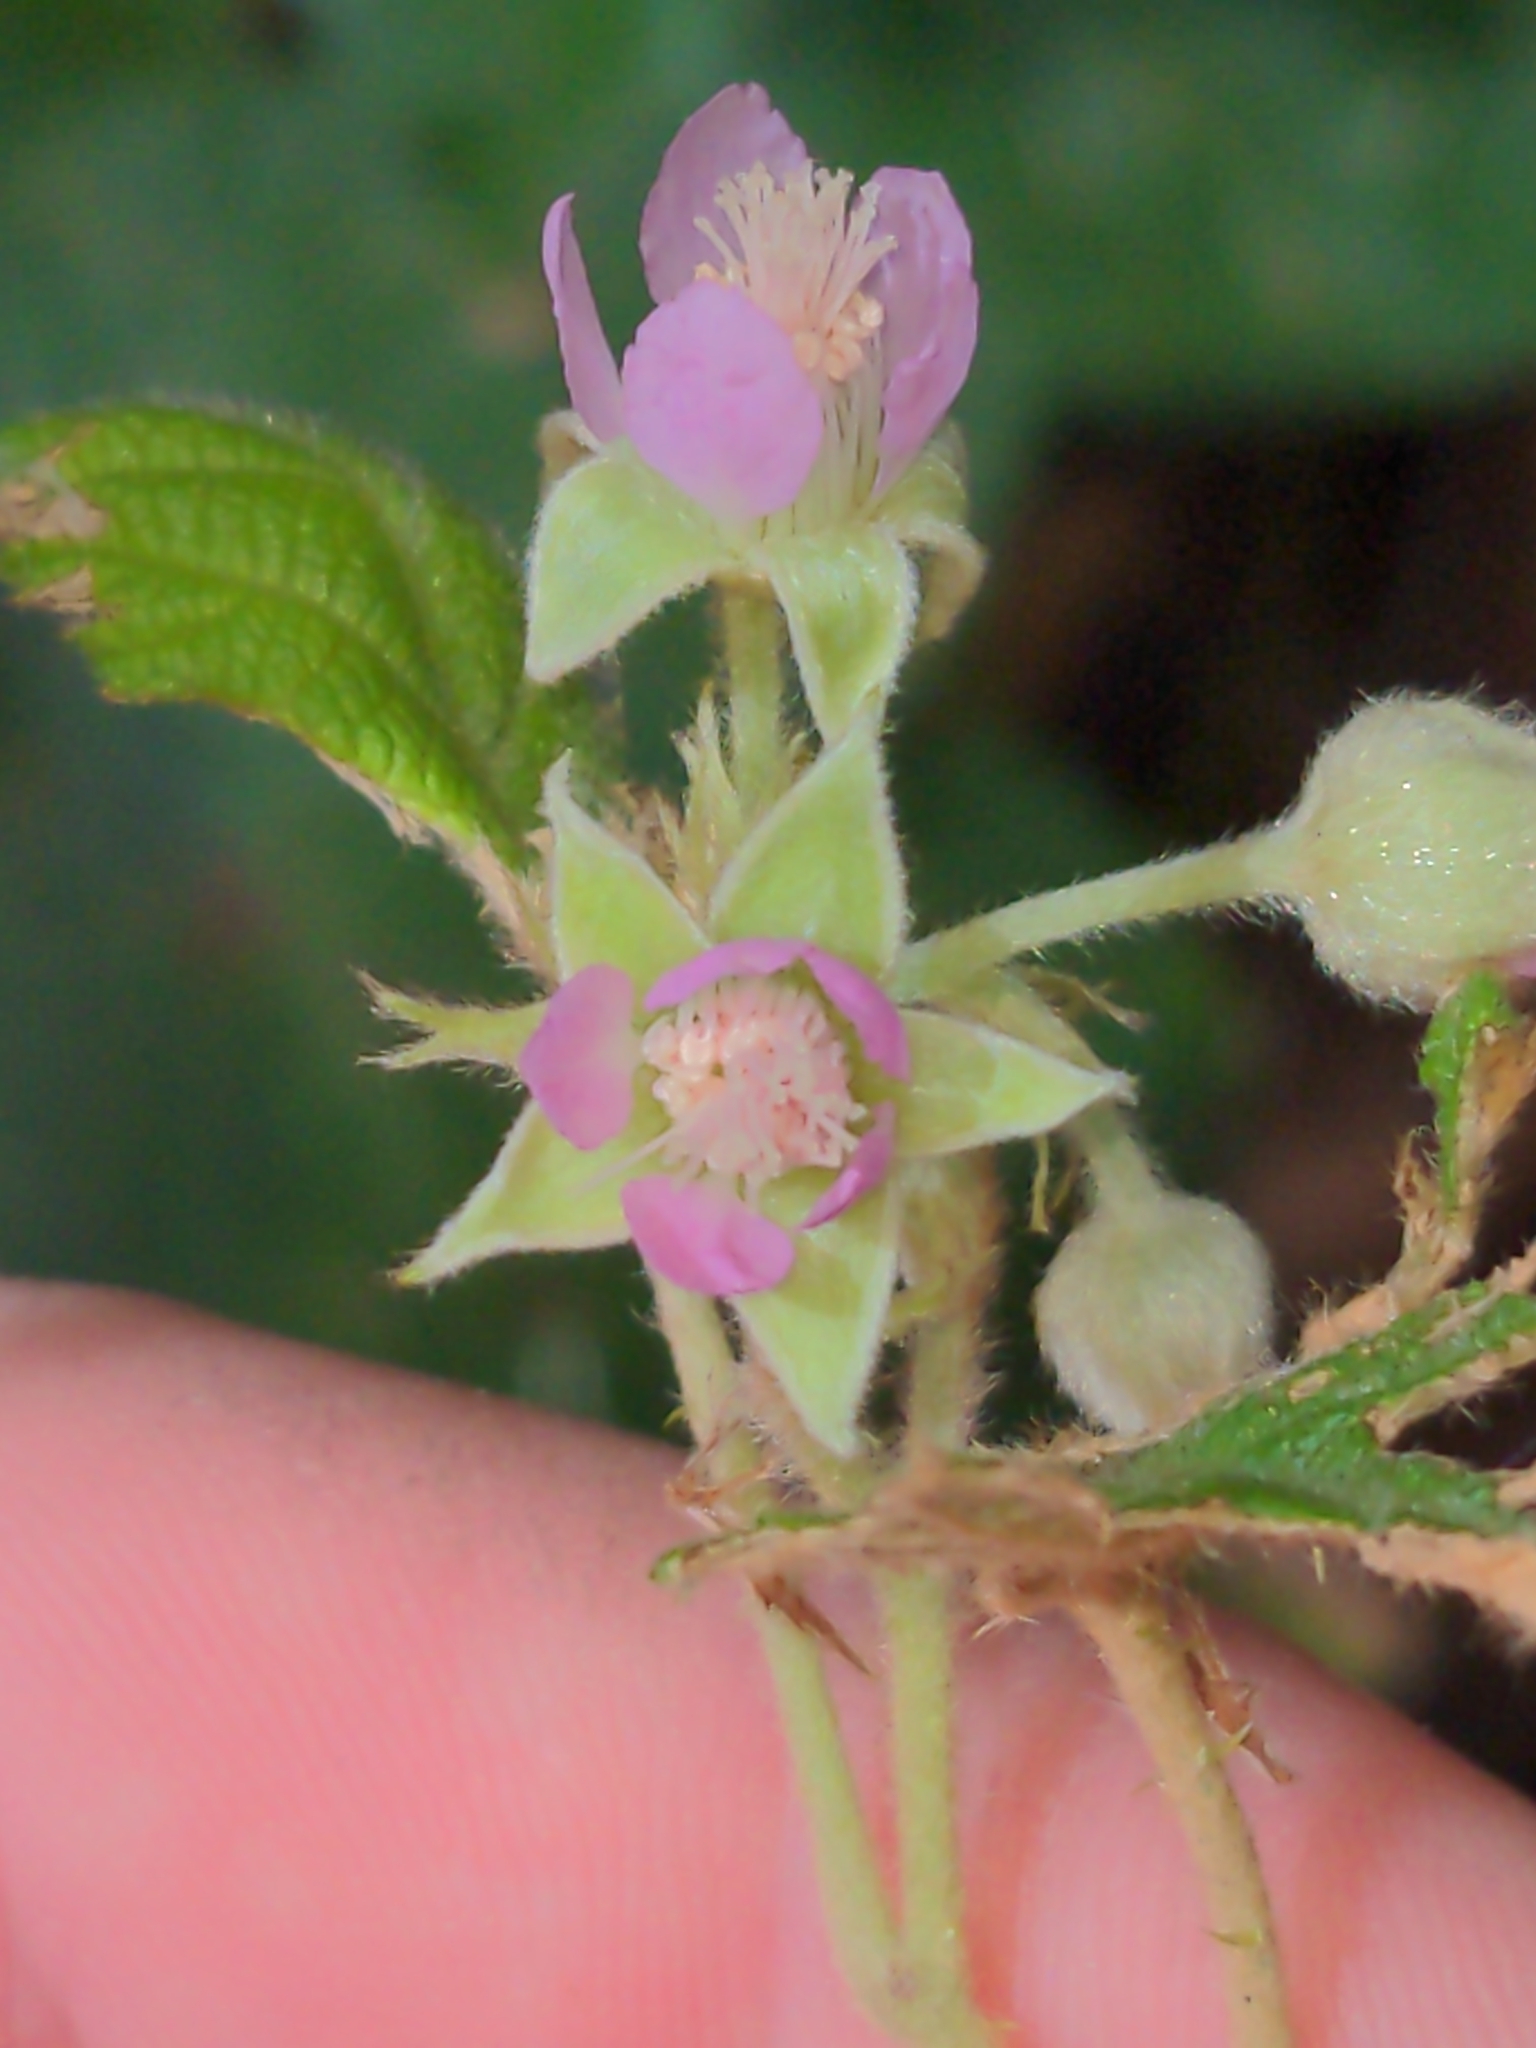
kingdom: Plantae
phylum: Tracheophyta
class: Magnoliopsida
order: Rosales
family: Rosaceae
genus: Rubus
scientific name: Rubus moluccanus
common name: Wild raspberry
